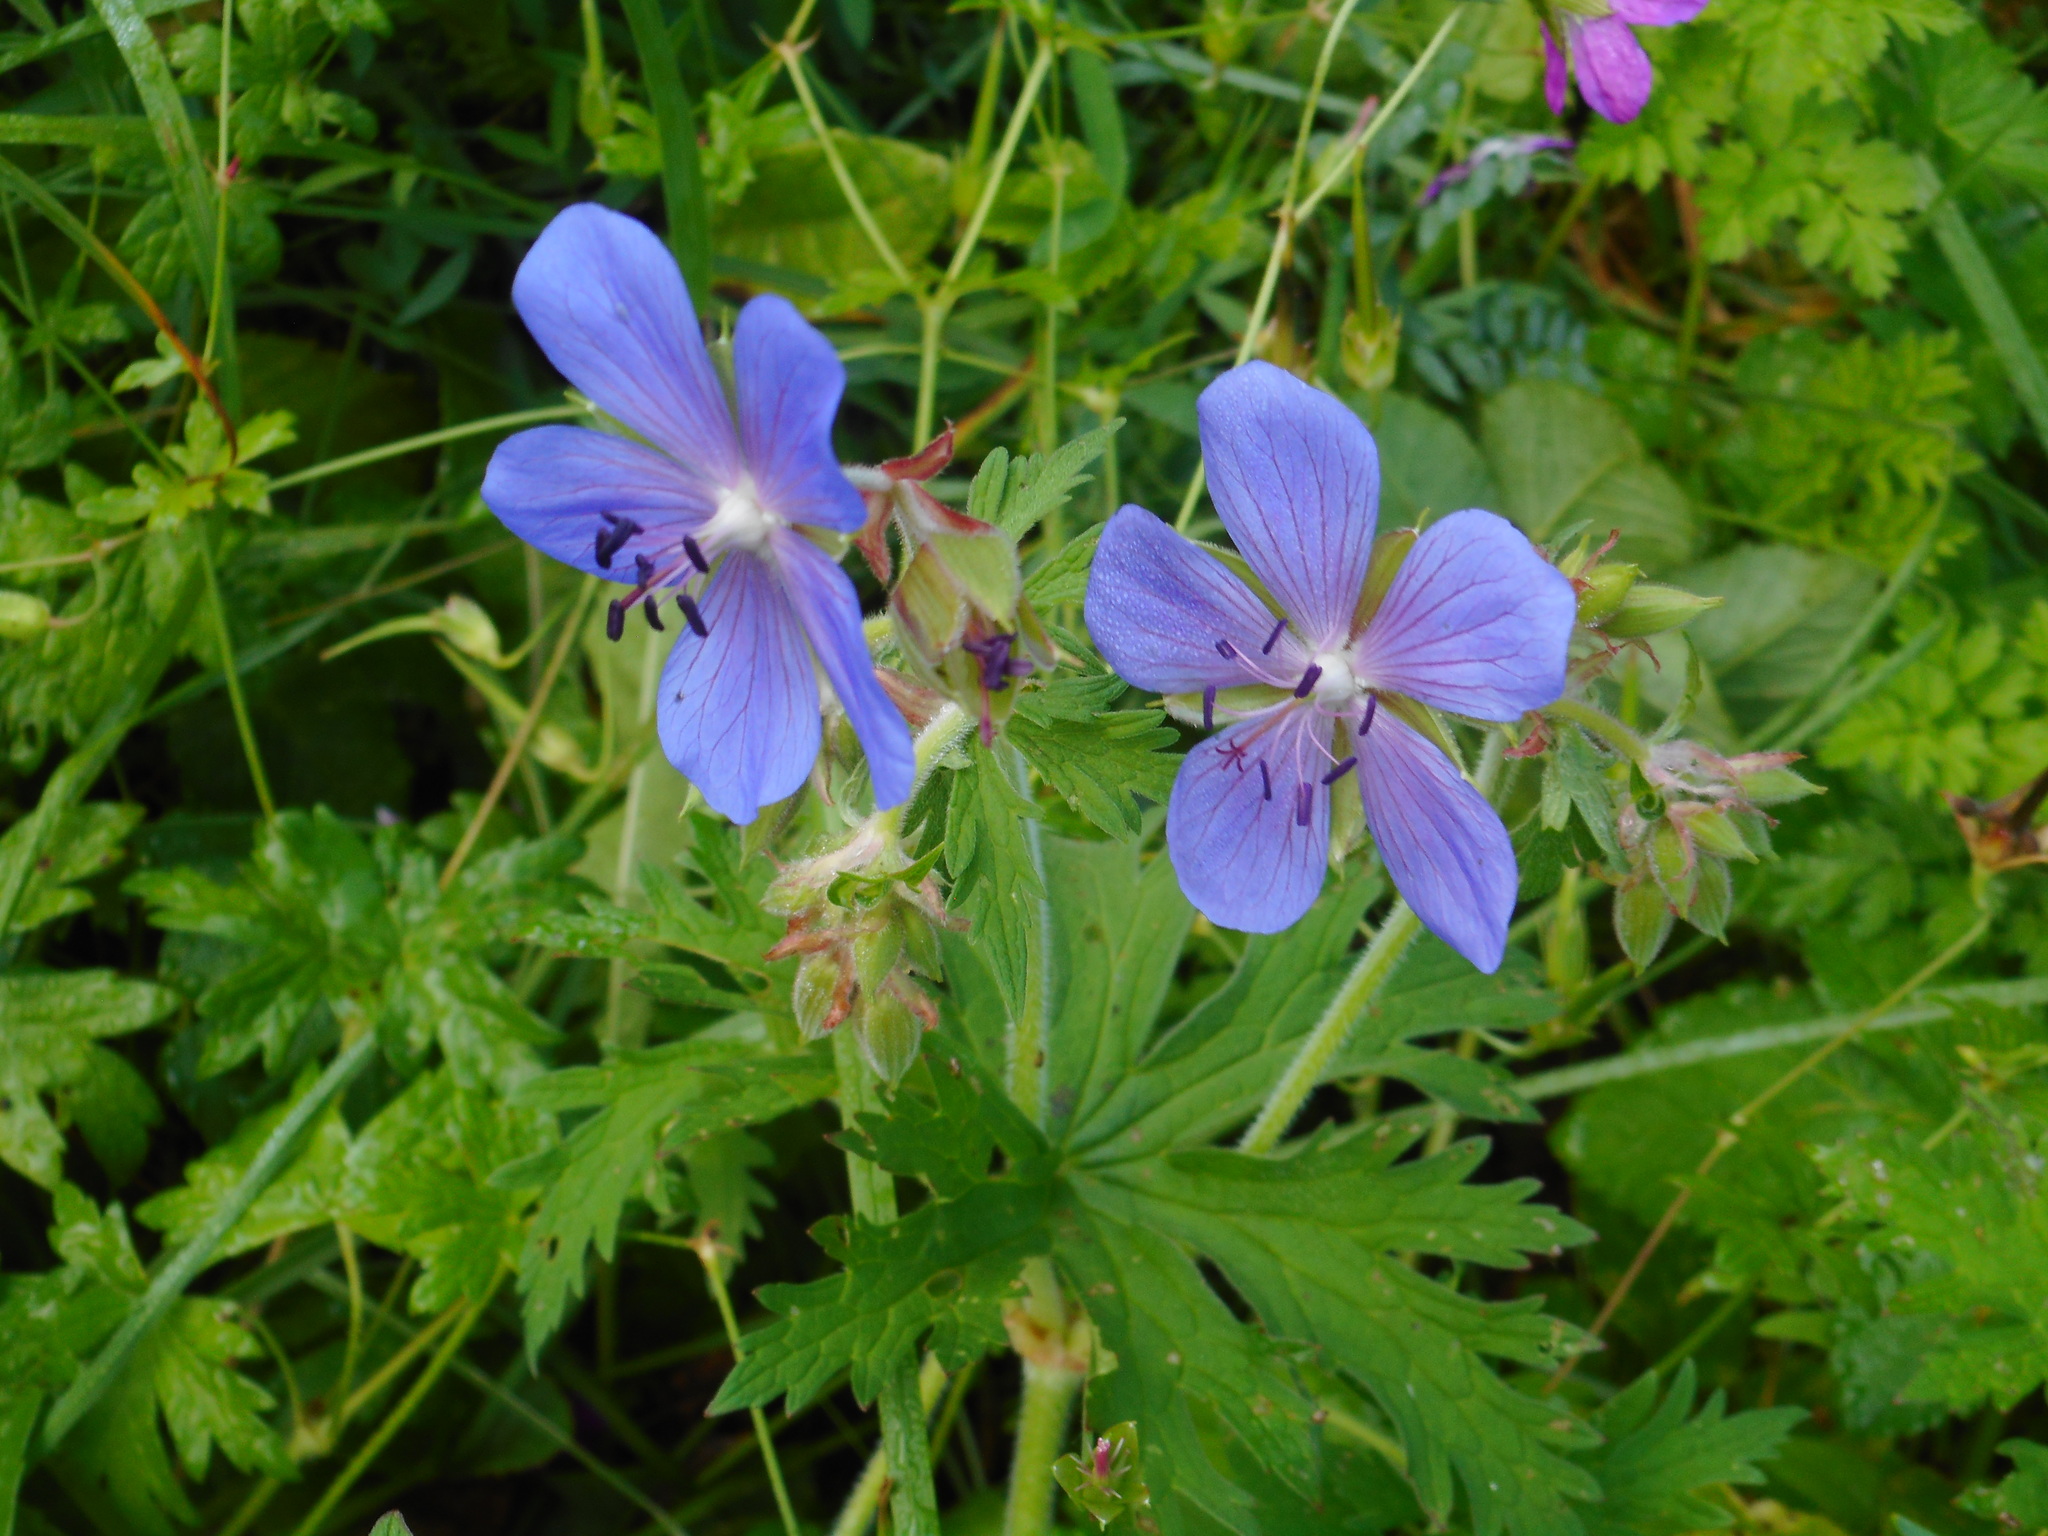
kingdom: Plantae
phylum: Tracheophyta
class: Magnoliopsida
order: Geraniales
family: Geraniaceae
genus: Geranium
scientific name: Geranium pratense
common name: Meadow crane's-bill
